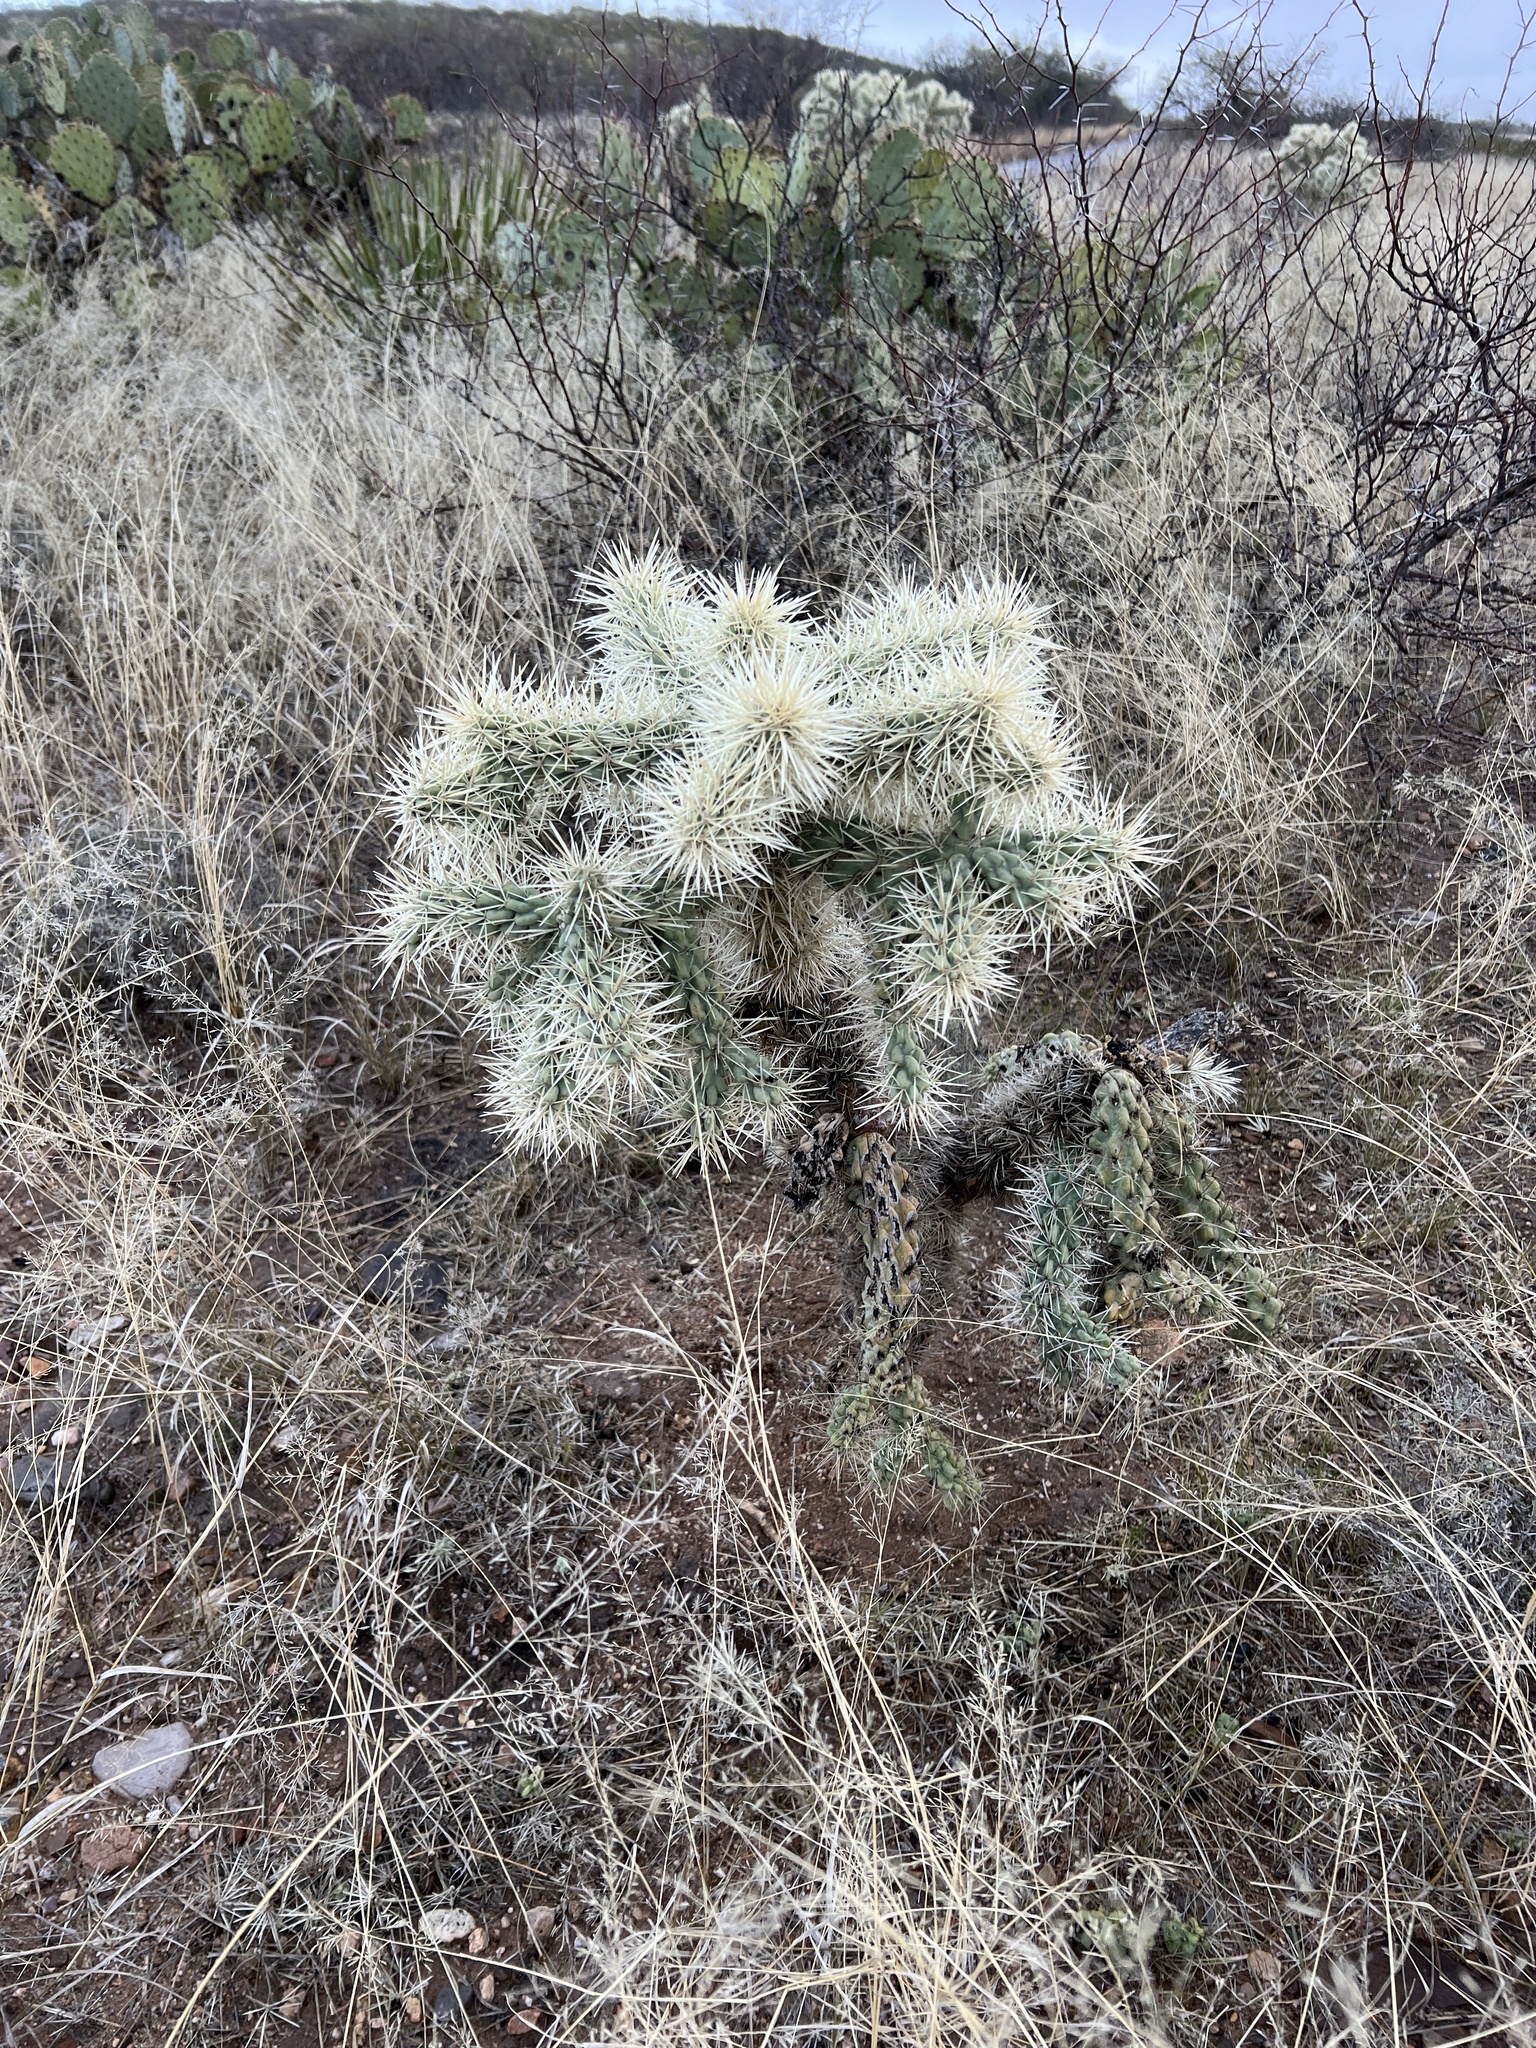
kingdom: Plantae
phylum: Tracheophyta
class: Magnoliopsida
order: Caryophyllales
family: Cactaceae
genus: Cylindropuntia
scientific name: Cylindropuntia fulgida
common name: Jumping cholla
